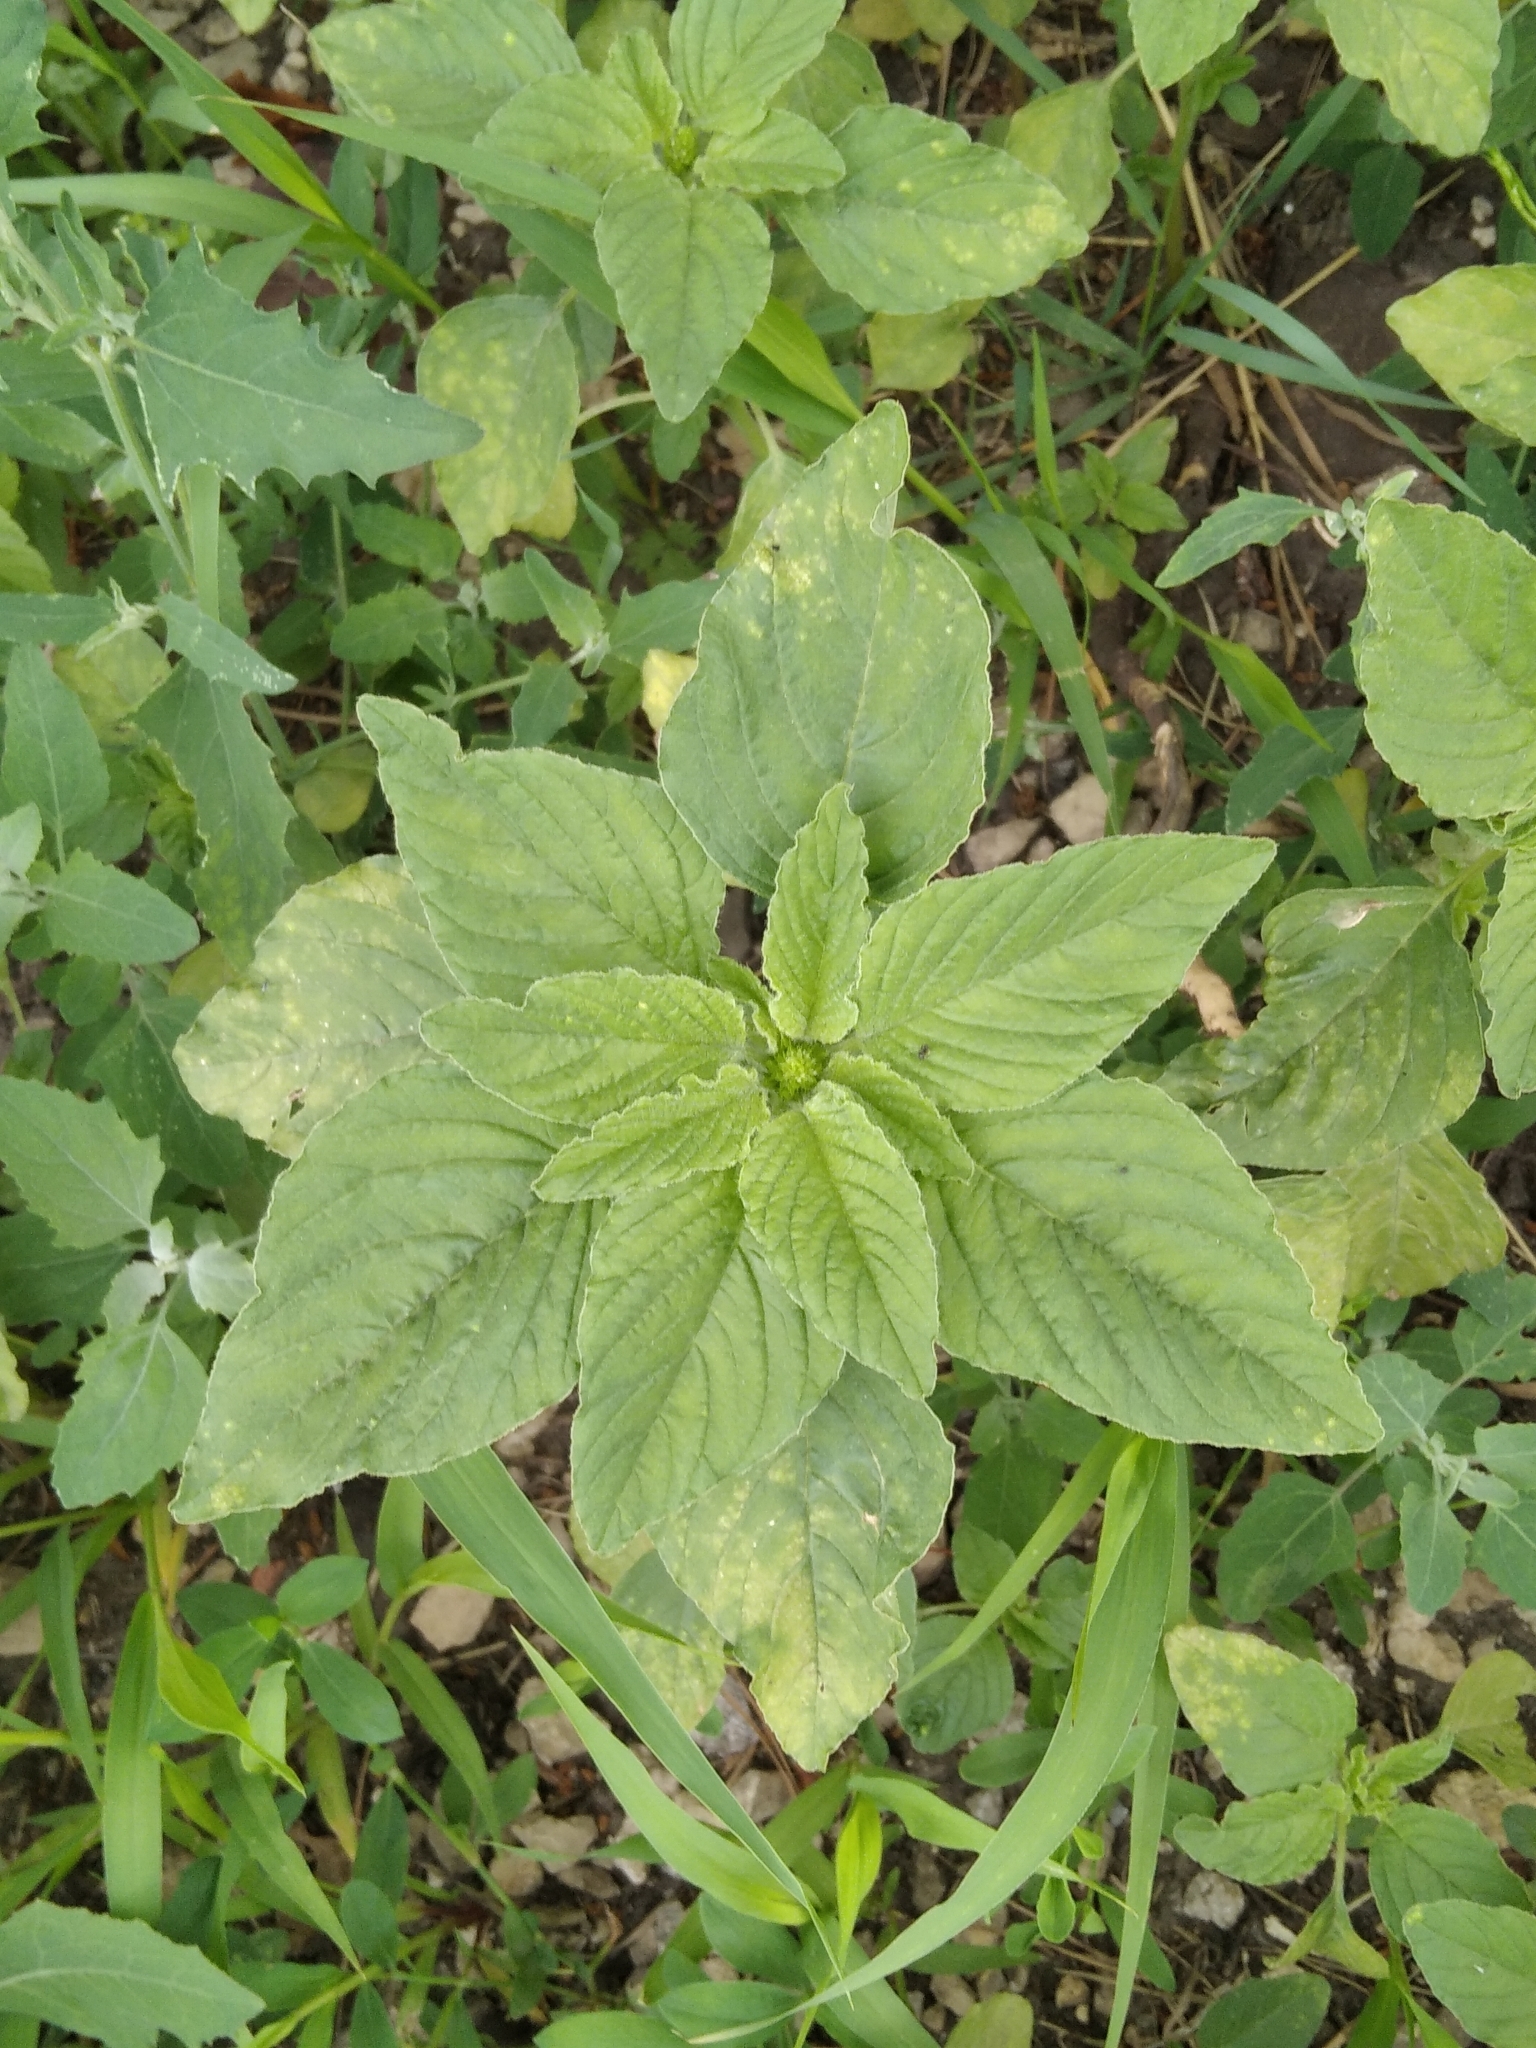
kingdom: Plantae
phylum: Tracheophyta
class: Magnoliopsida
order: Caryophyllales
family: Amaranthaceae
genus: Amaranthus
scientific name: Amaranthus retroflexus
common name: Redroot amaranth
